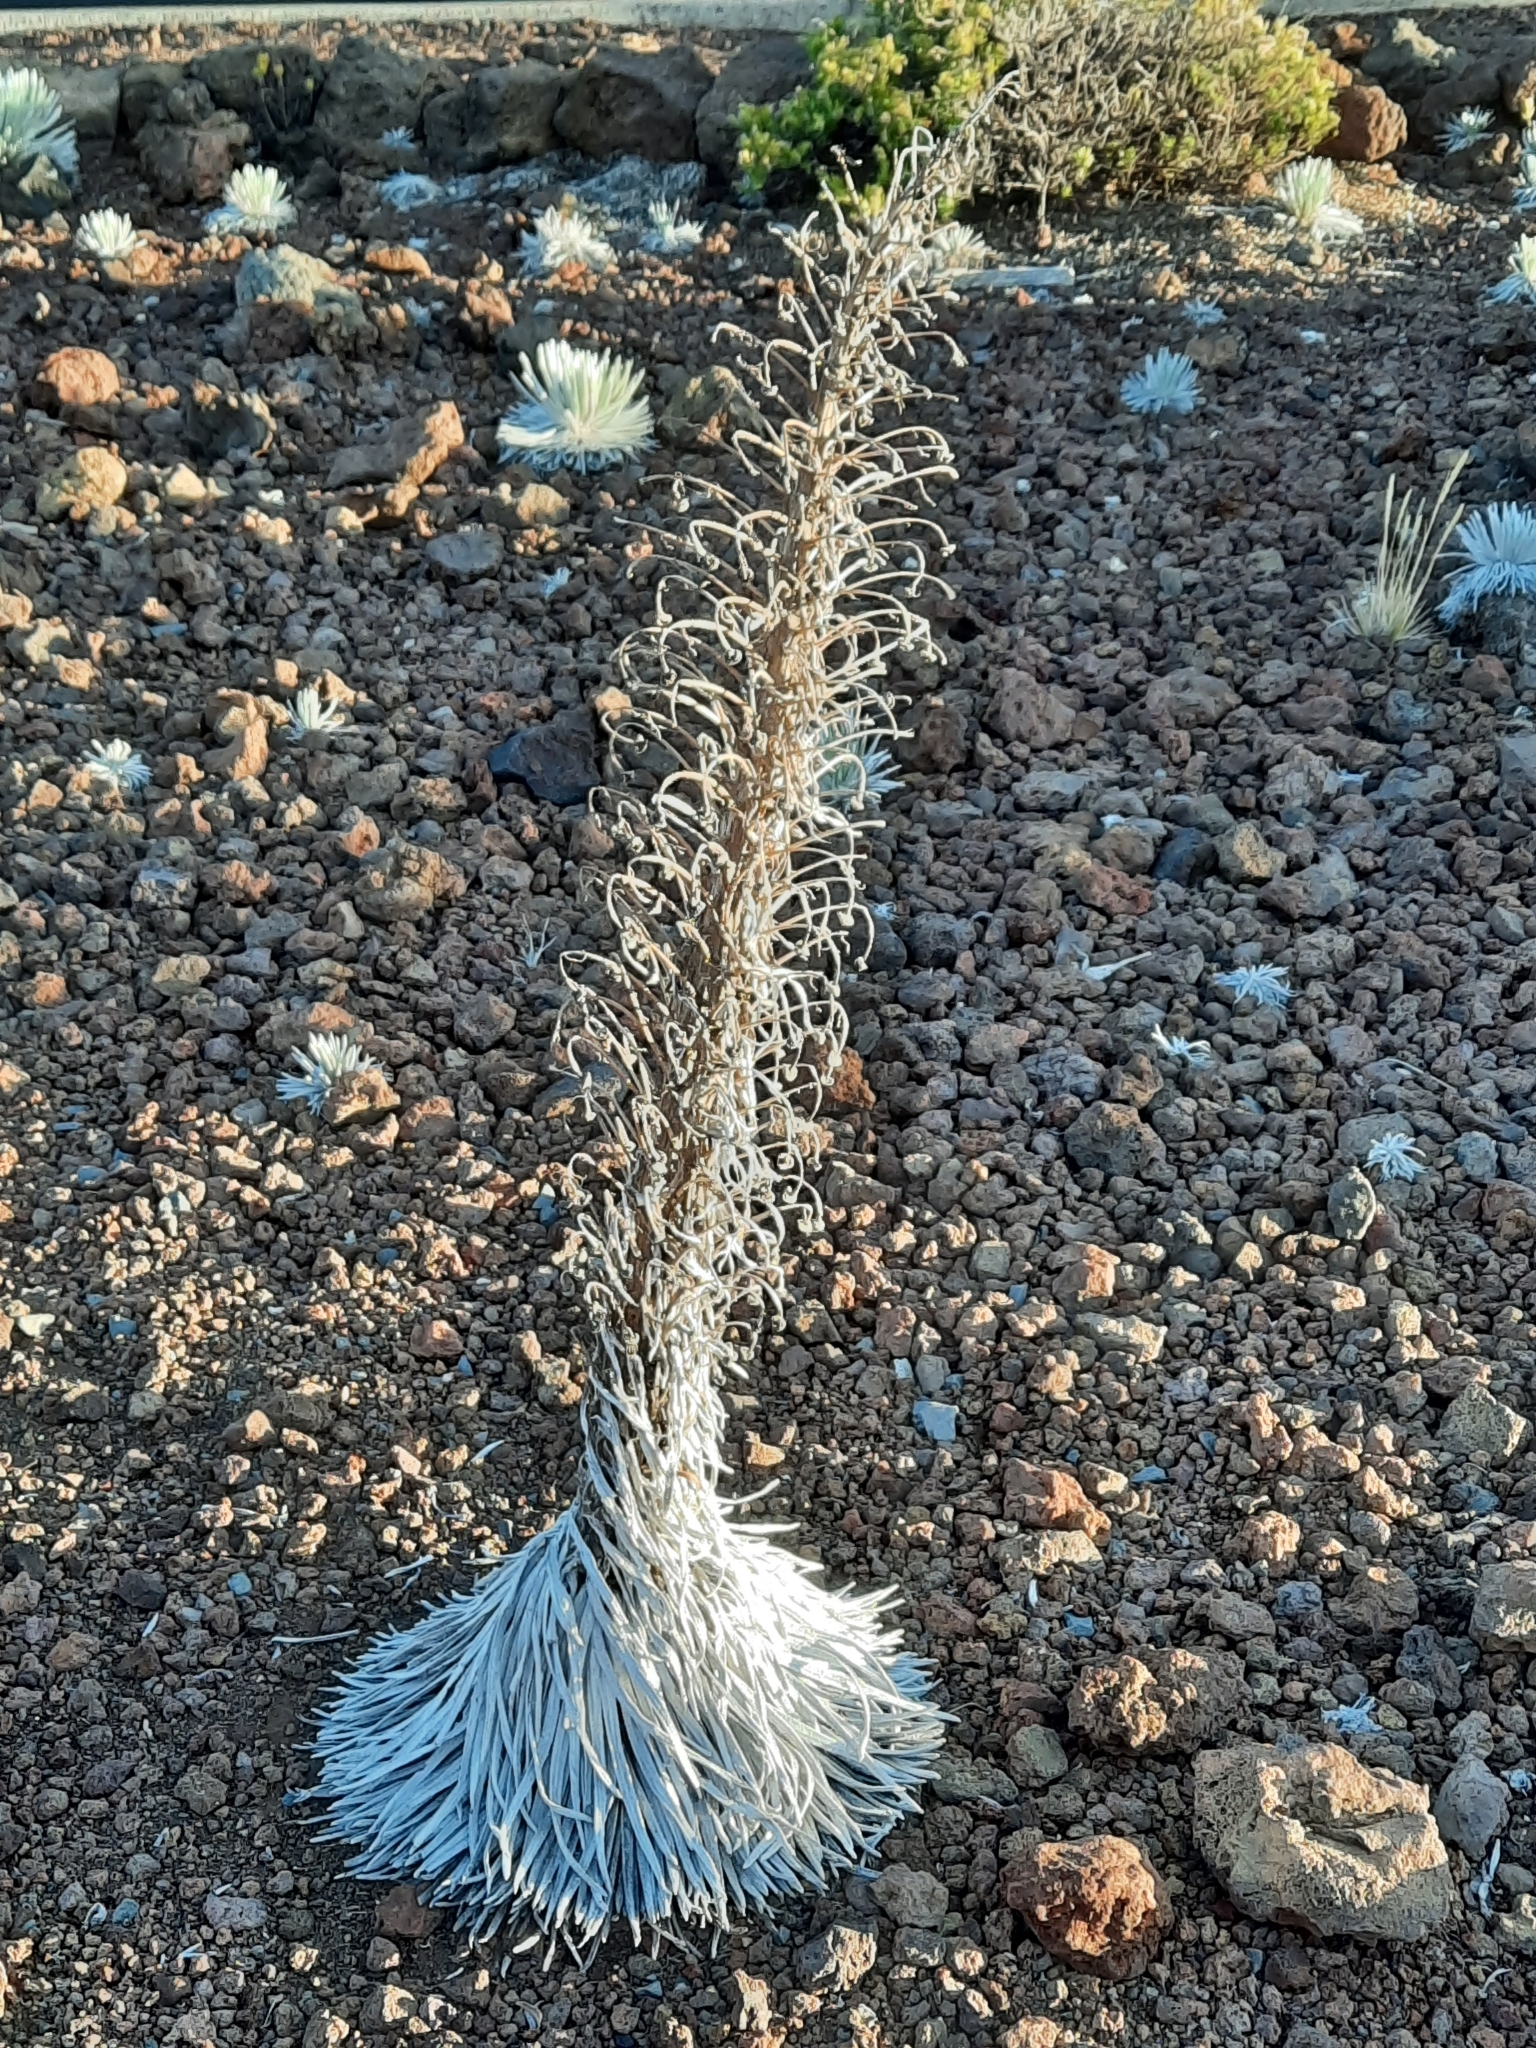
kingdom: Plantae
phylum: Tracheophyta
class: Magnoliopsida
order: Asterales
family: Asteraceae
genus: Argyroxiphium
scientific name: Argyroxiphium sandwicense
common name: Silversword
